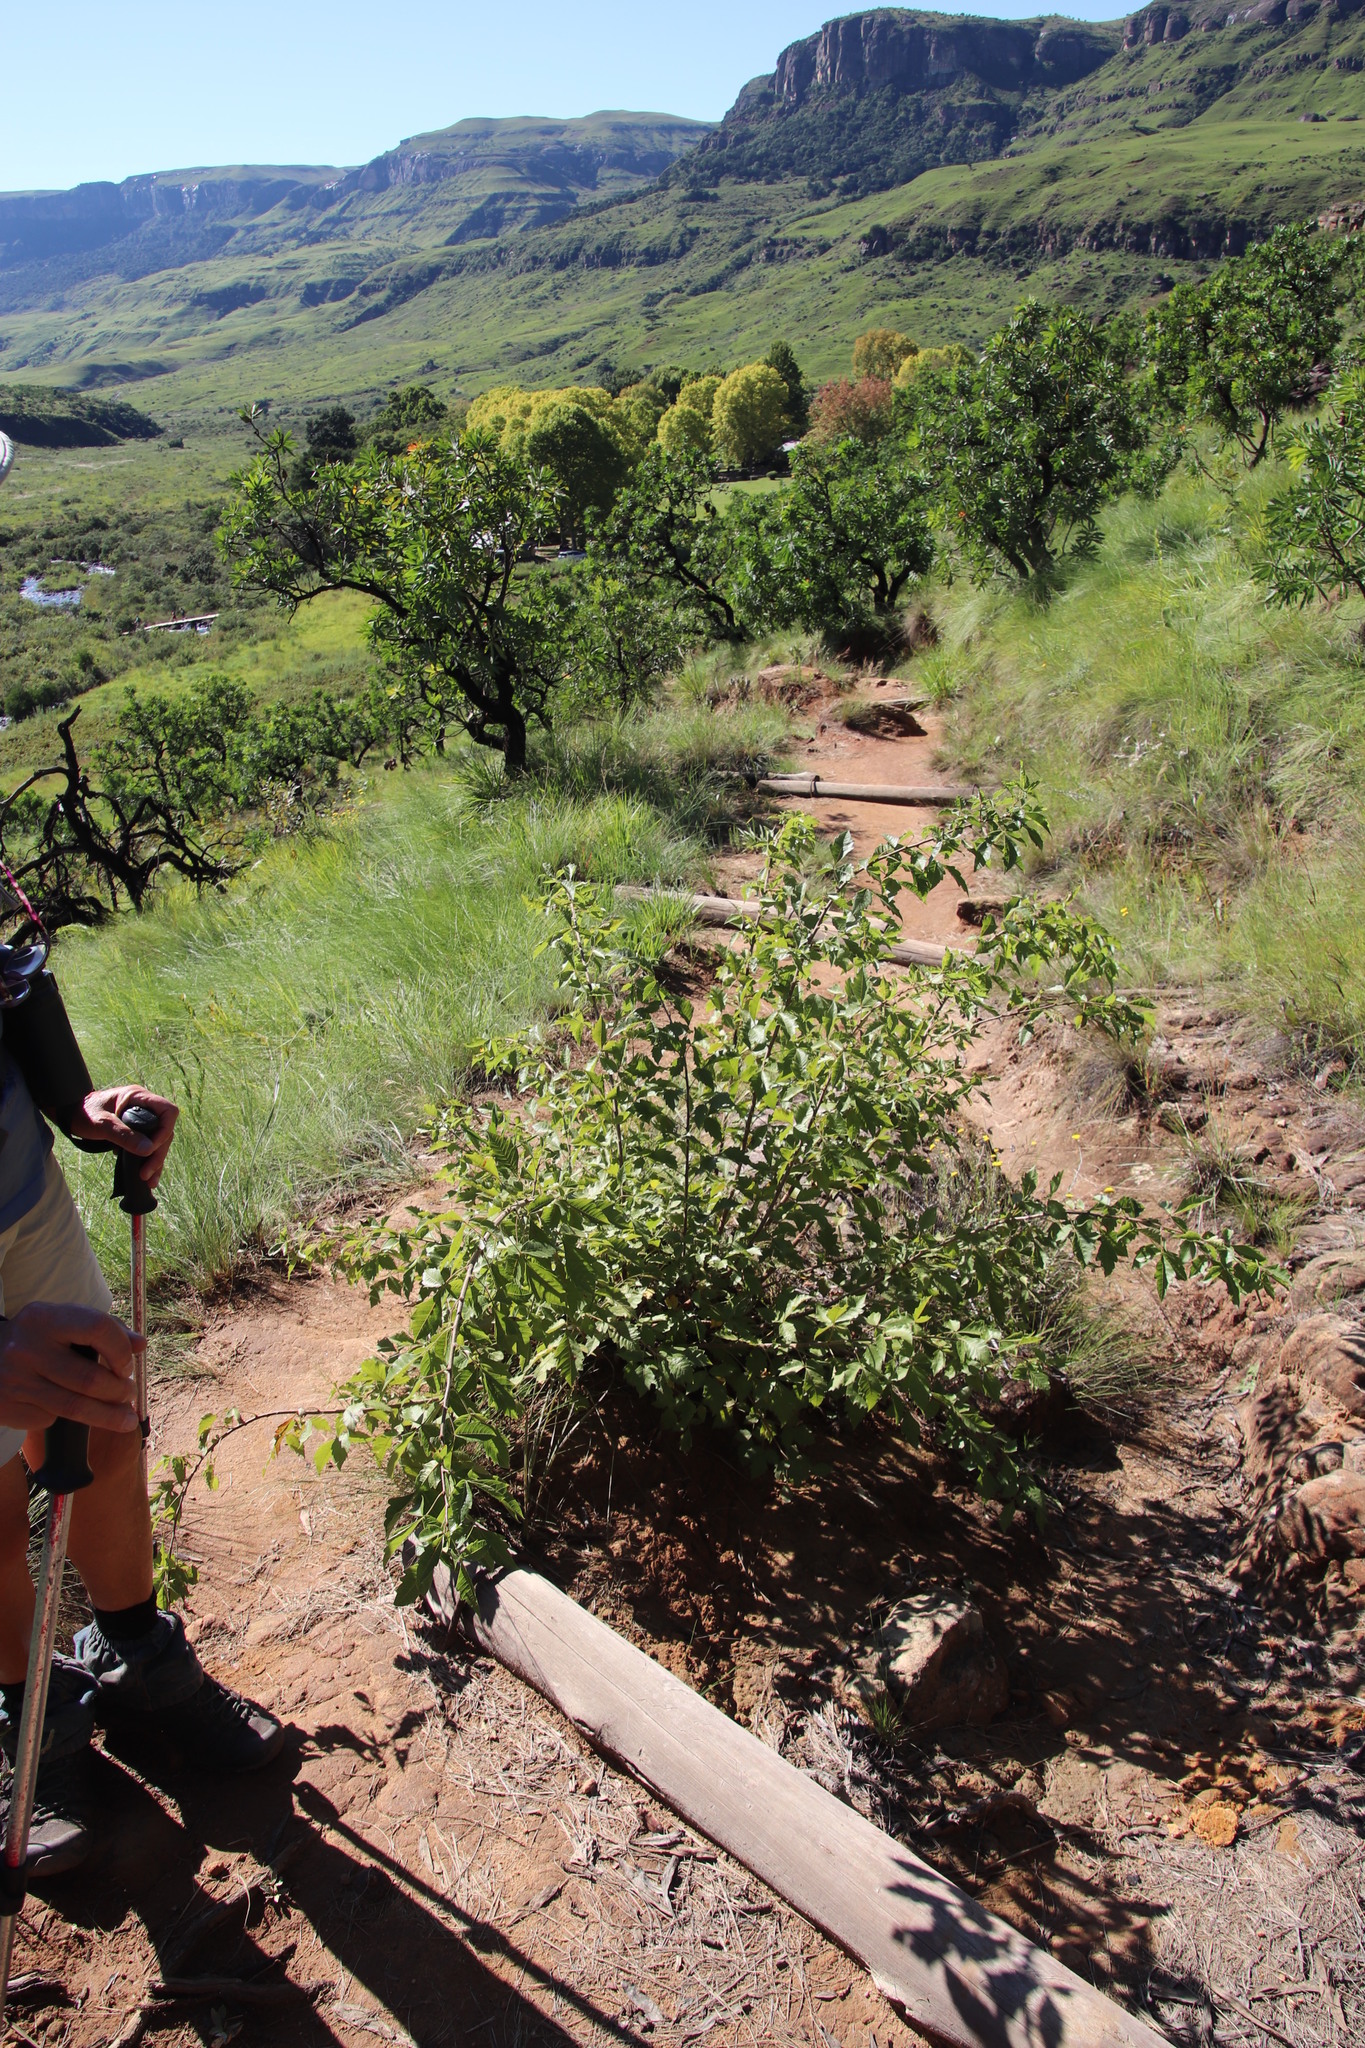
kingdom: Plantae
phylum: Tracheophyta
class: Magnoliopsida
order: Sapindales
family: Anacardiaceae
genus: Searsia
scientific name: Searsia dentata
